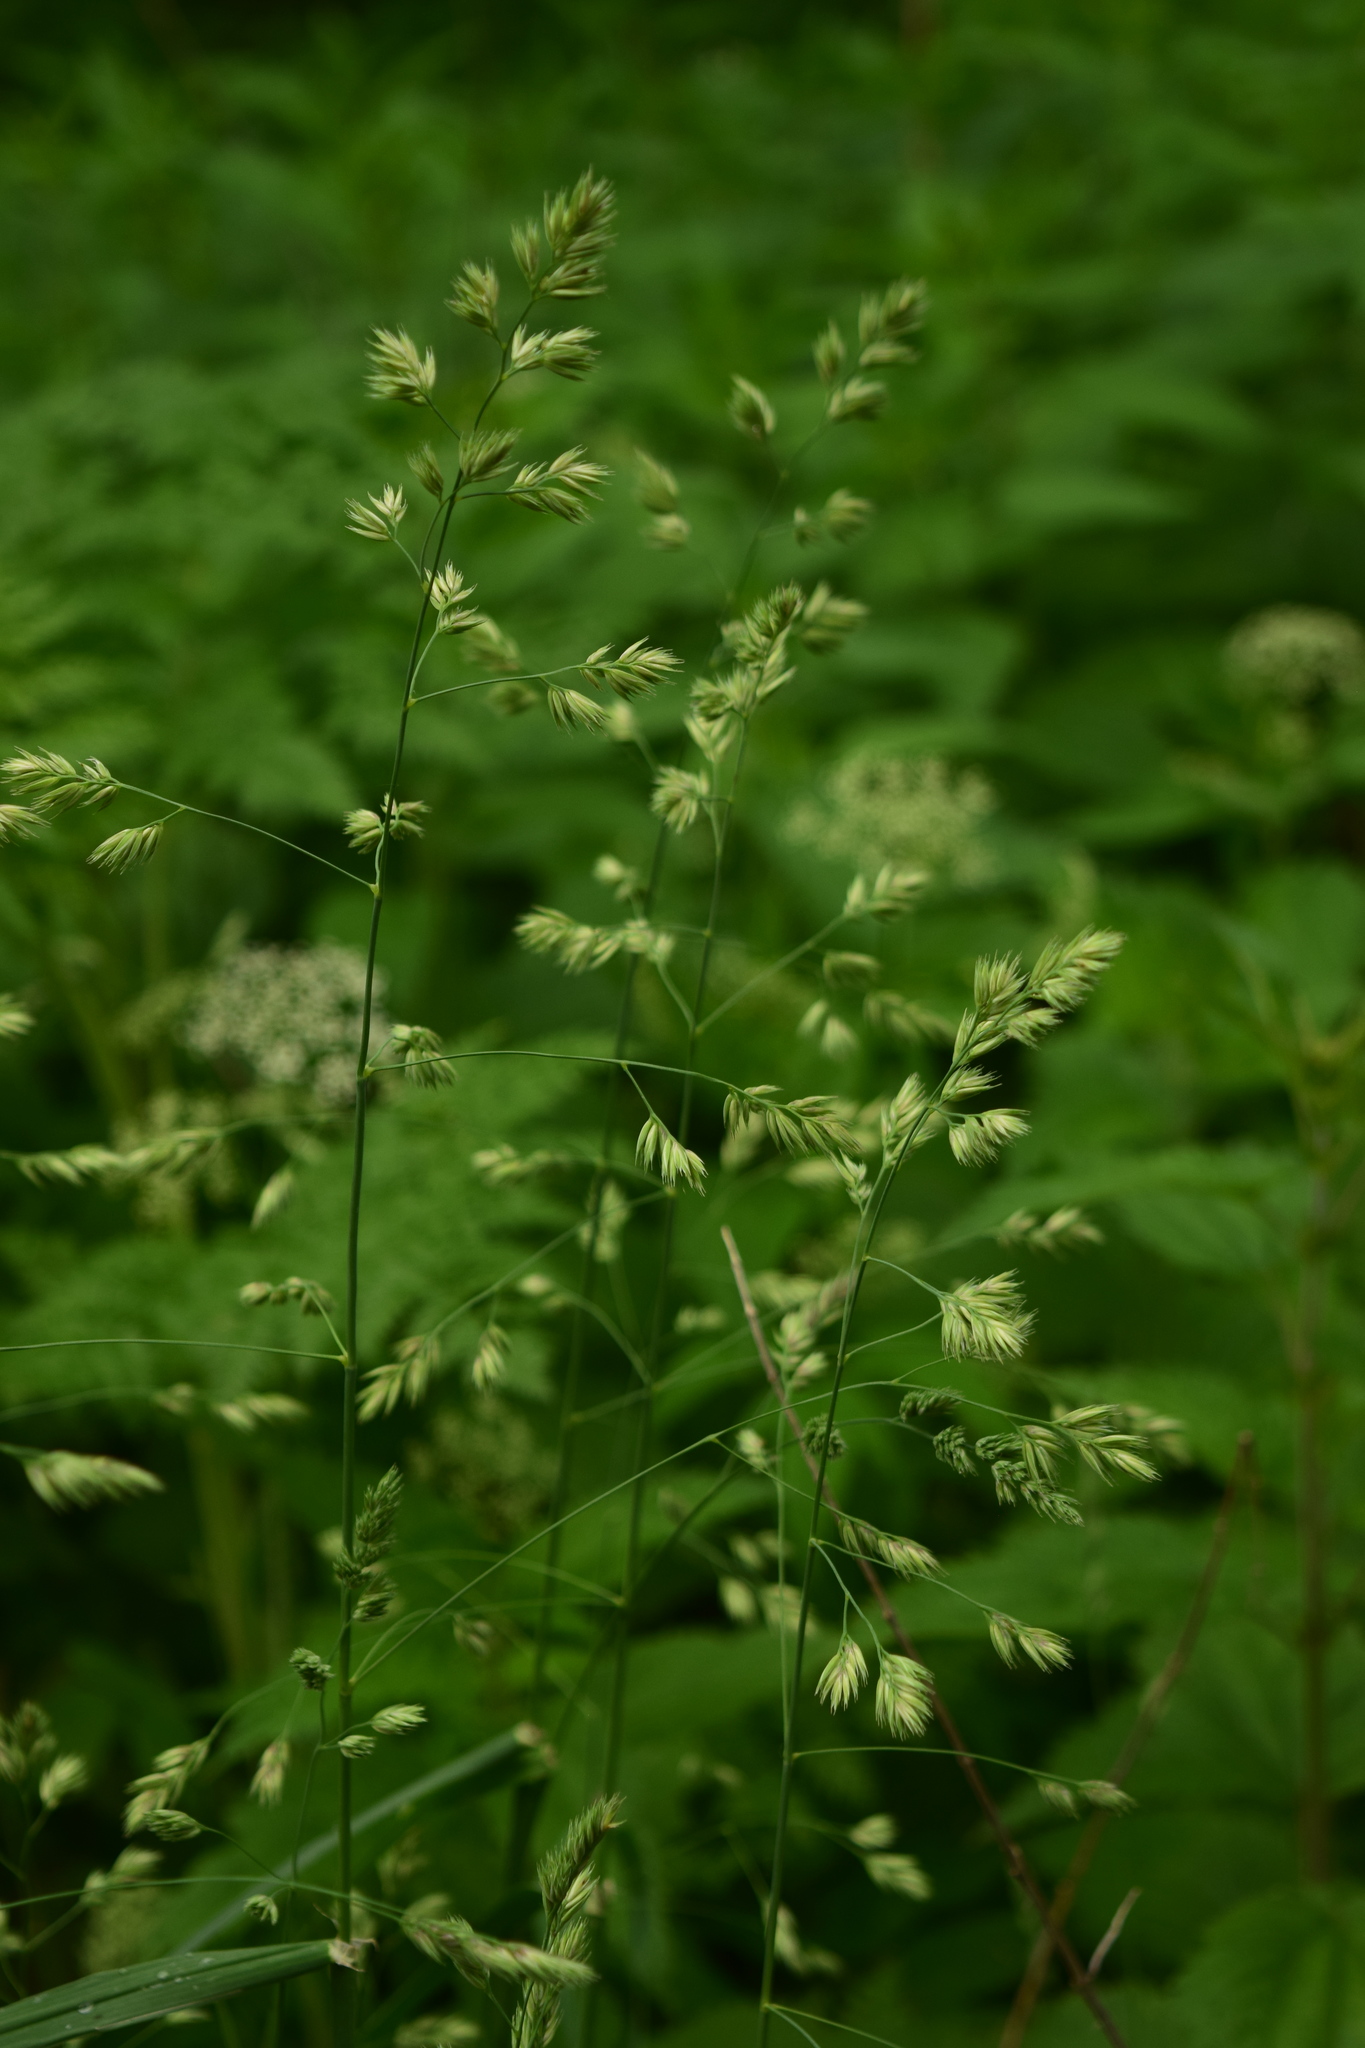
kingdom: Plantae
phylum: Tracheophyta
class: Liliopsida
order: Poales
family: Poaceae
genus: Dactylis
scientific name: Dactylis glomerata
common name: Orchardgrass
